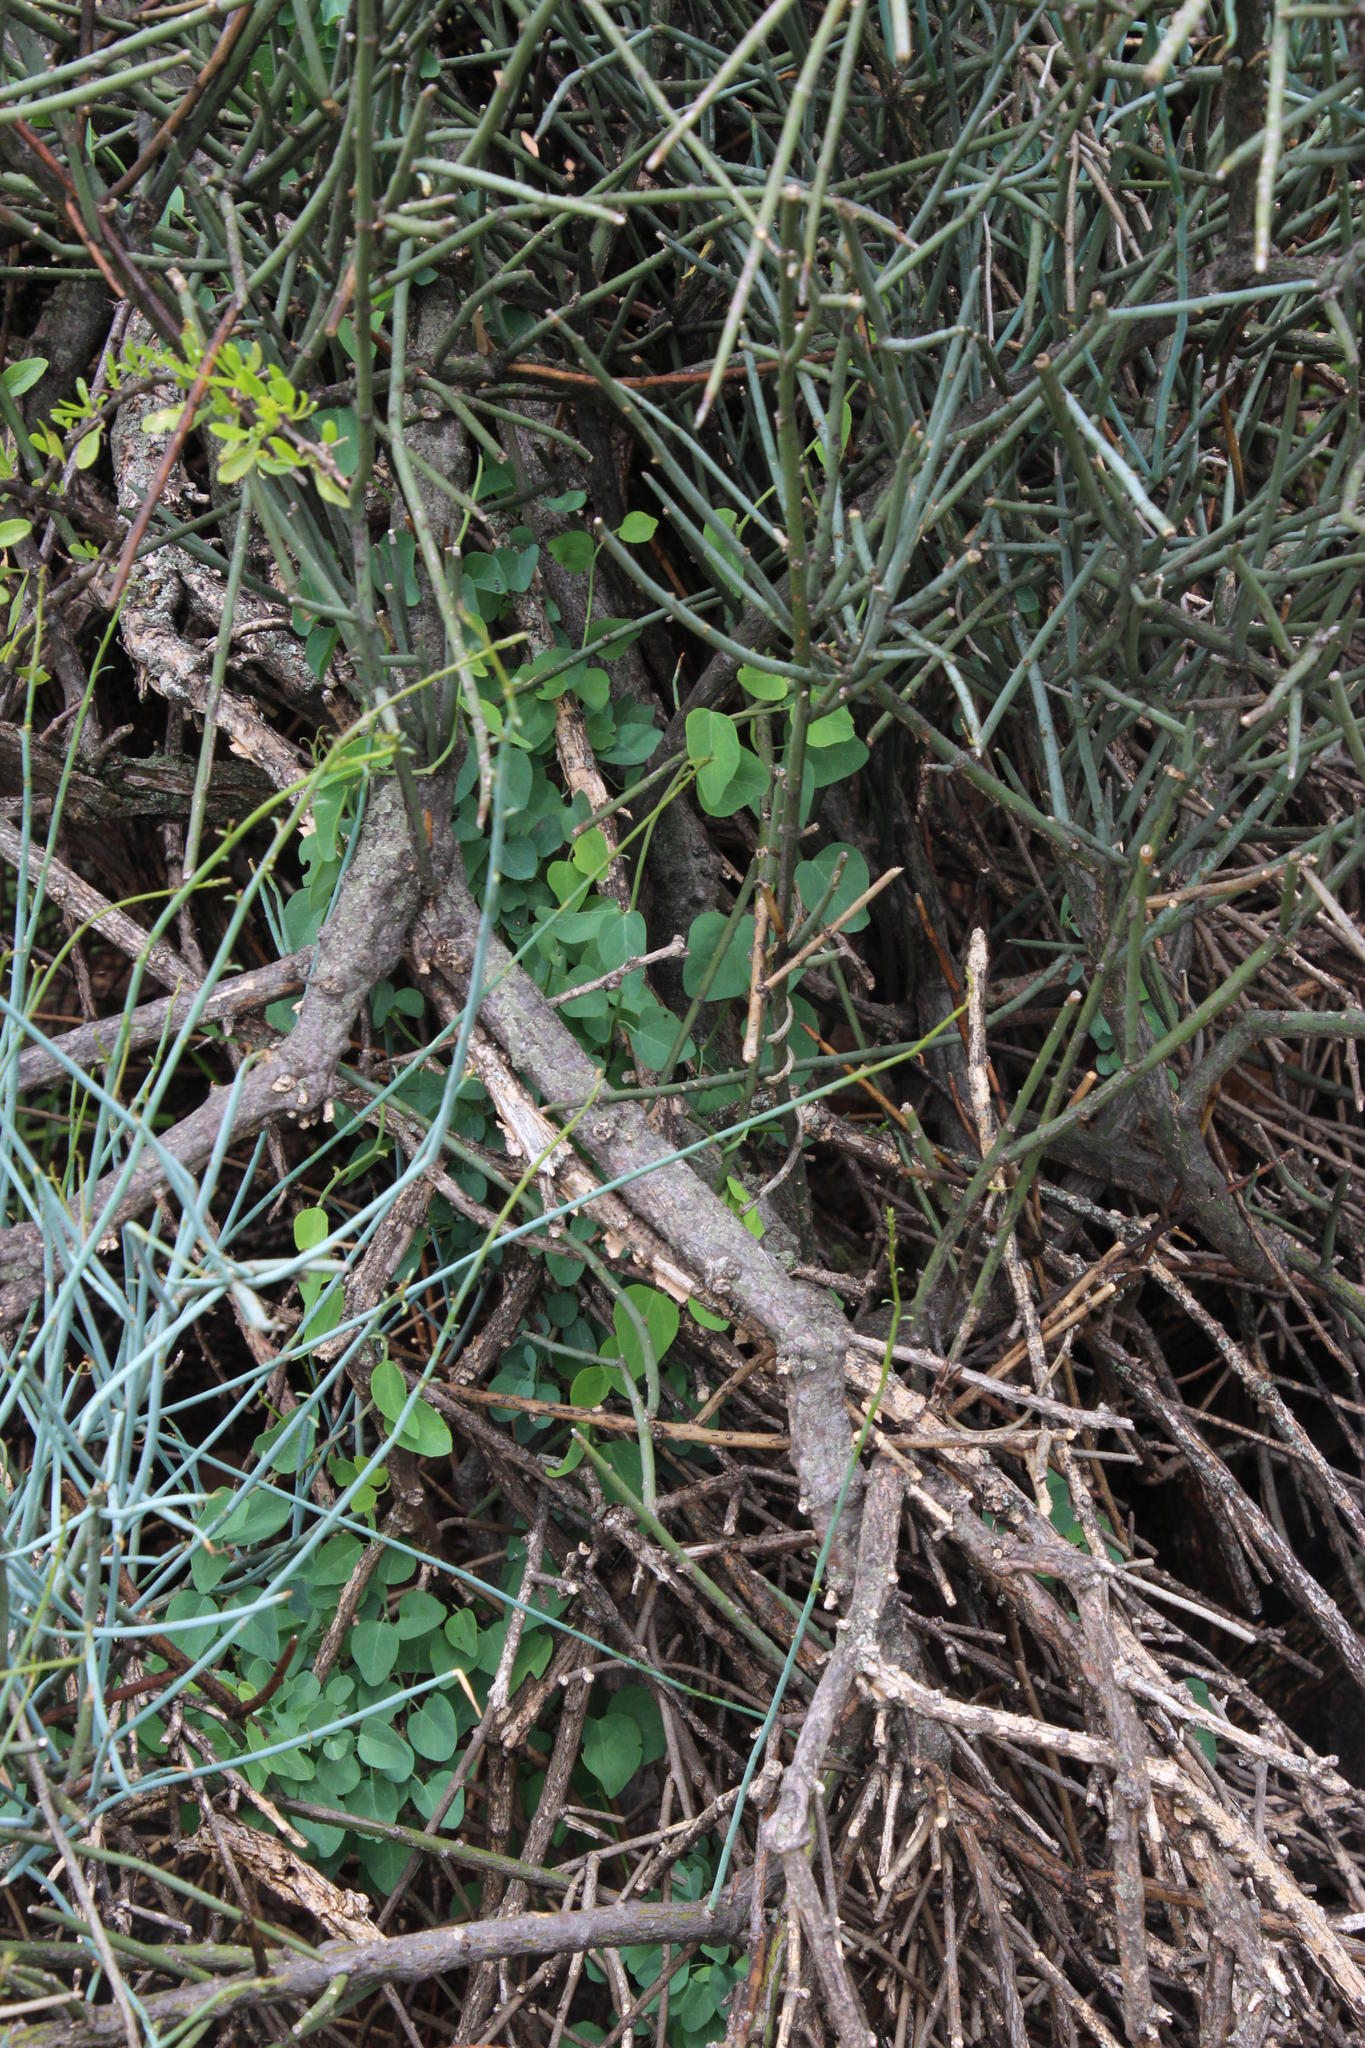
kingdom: Plantae
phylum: Tracheophyta
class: Magnoliopsida
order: Ranunculales
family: Menispermaceae
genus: Cissampelos
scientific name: Cissampelos capensis
